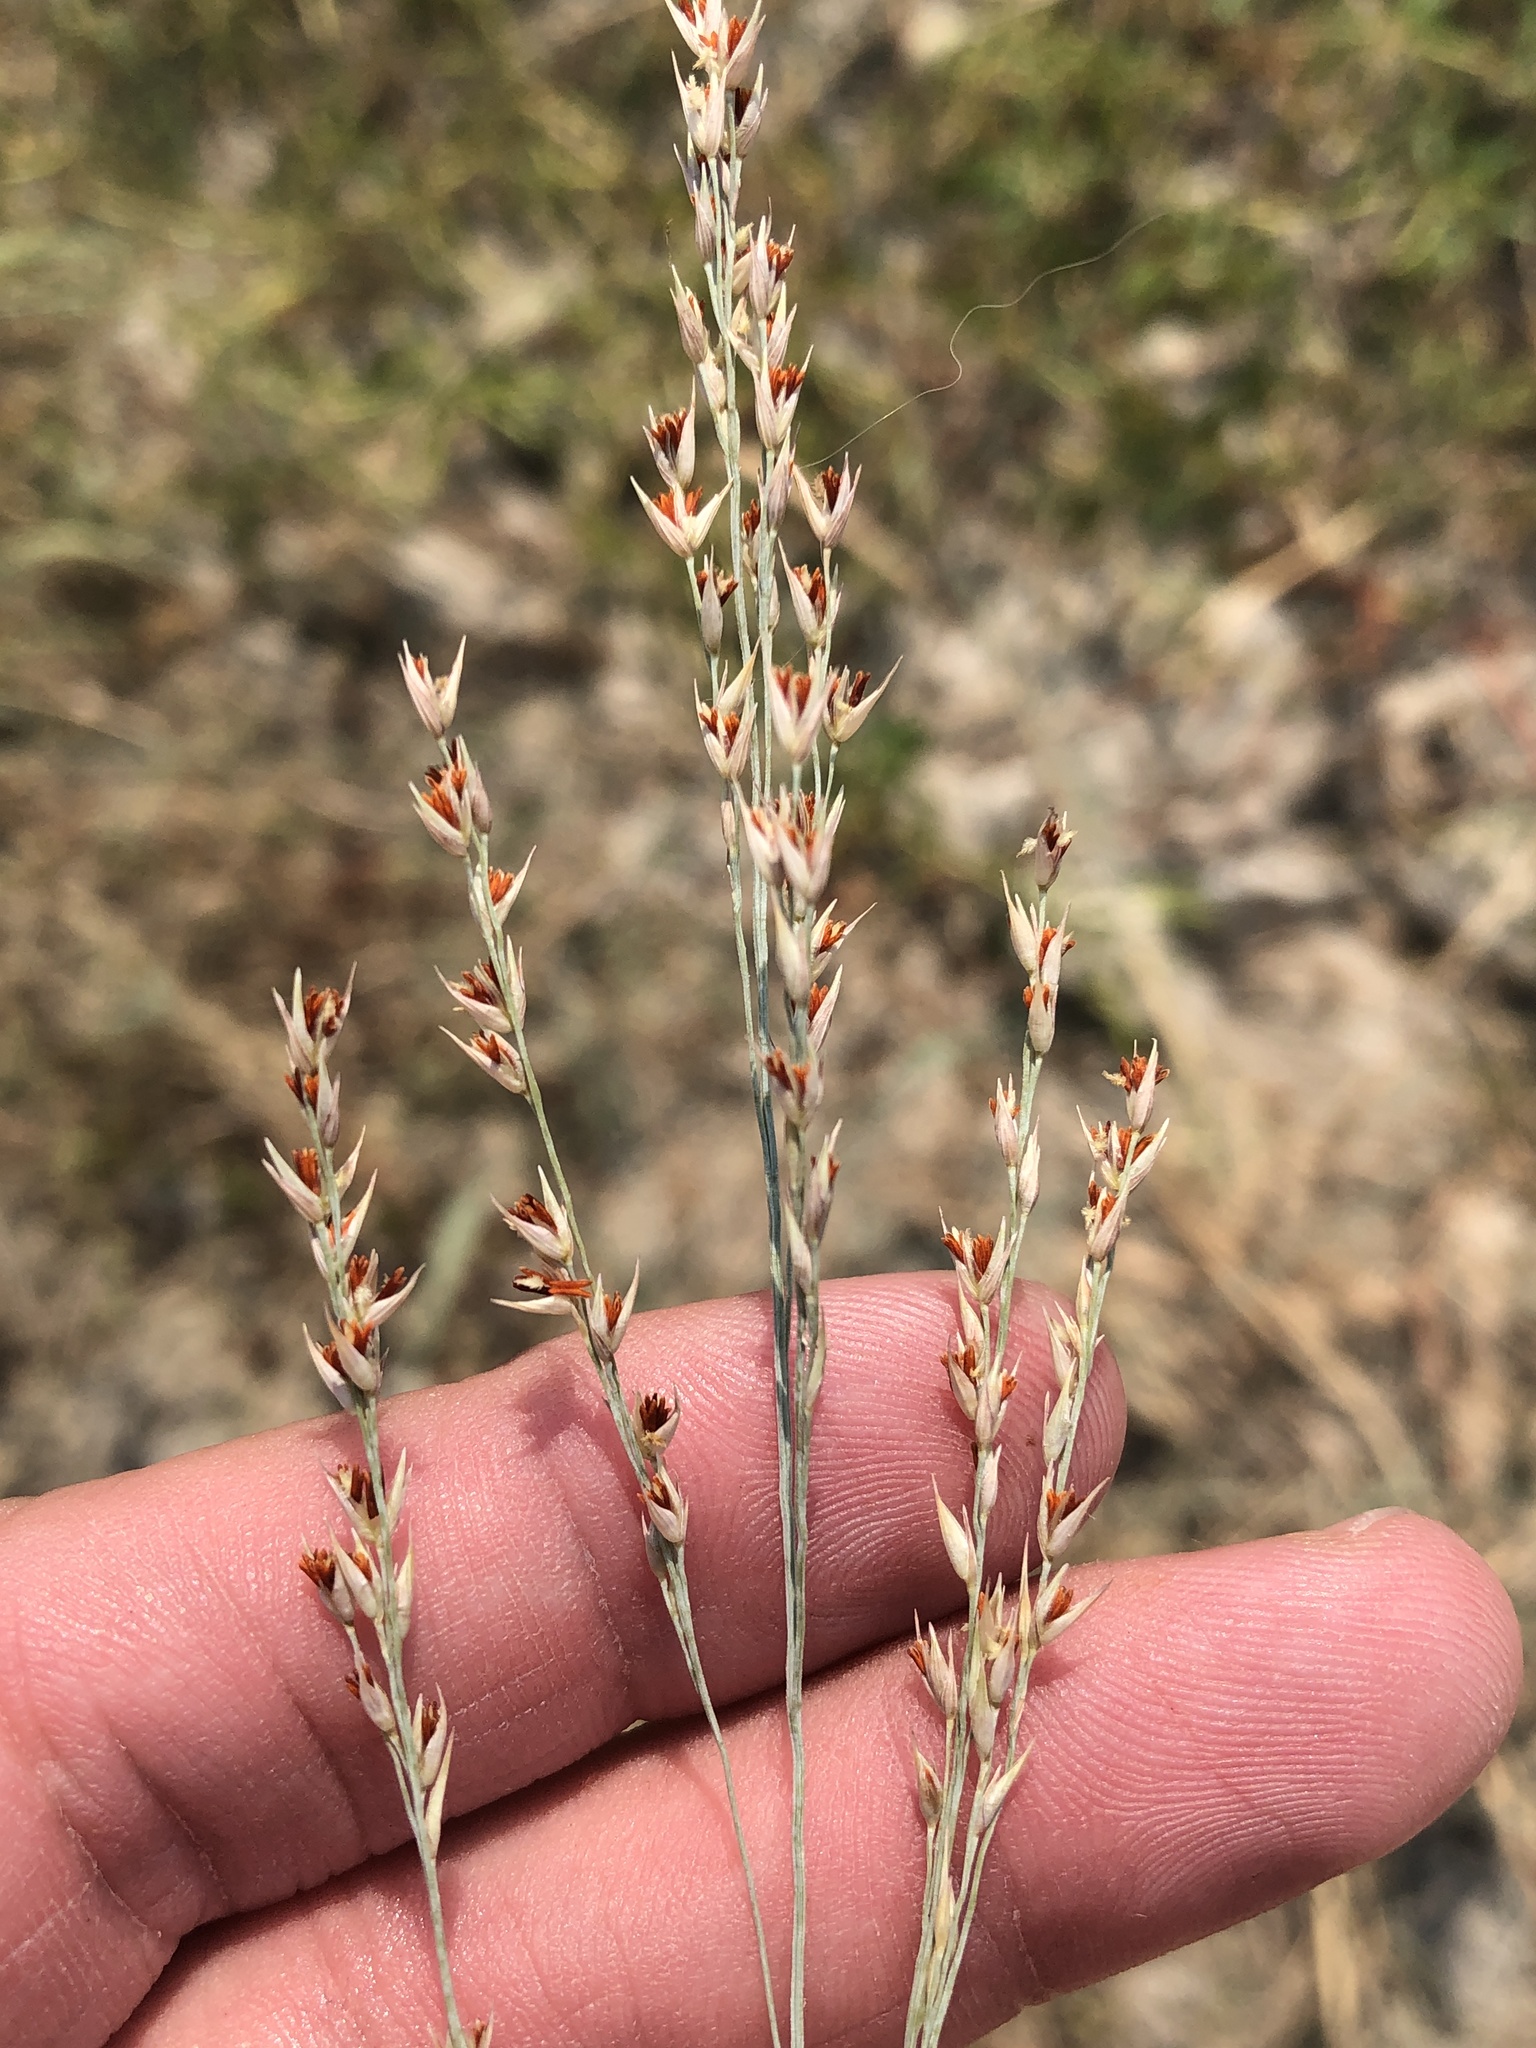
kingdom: Plantae
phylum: Tracheophyta
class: Liliopsida
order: Poales
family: Poaceae
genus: Panicum
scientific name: Panicum virgatum
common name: Switchgrass
